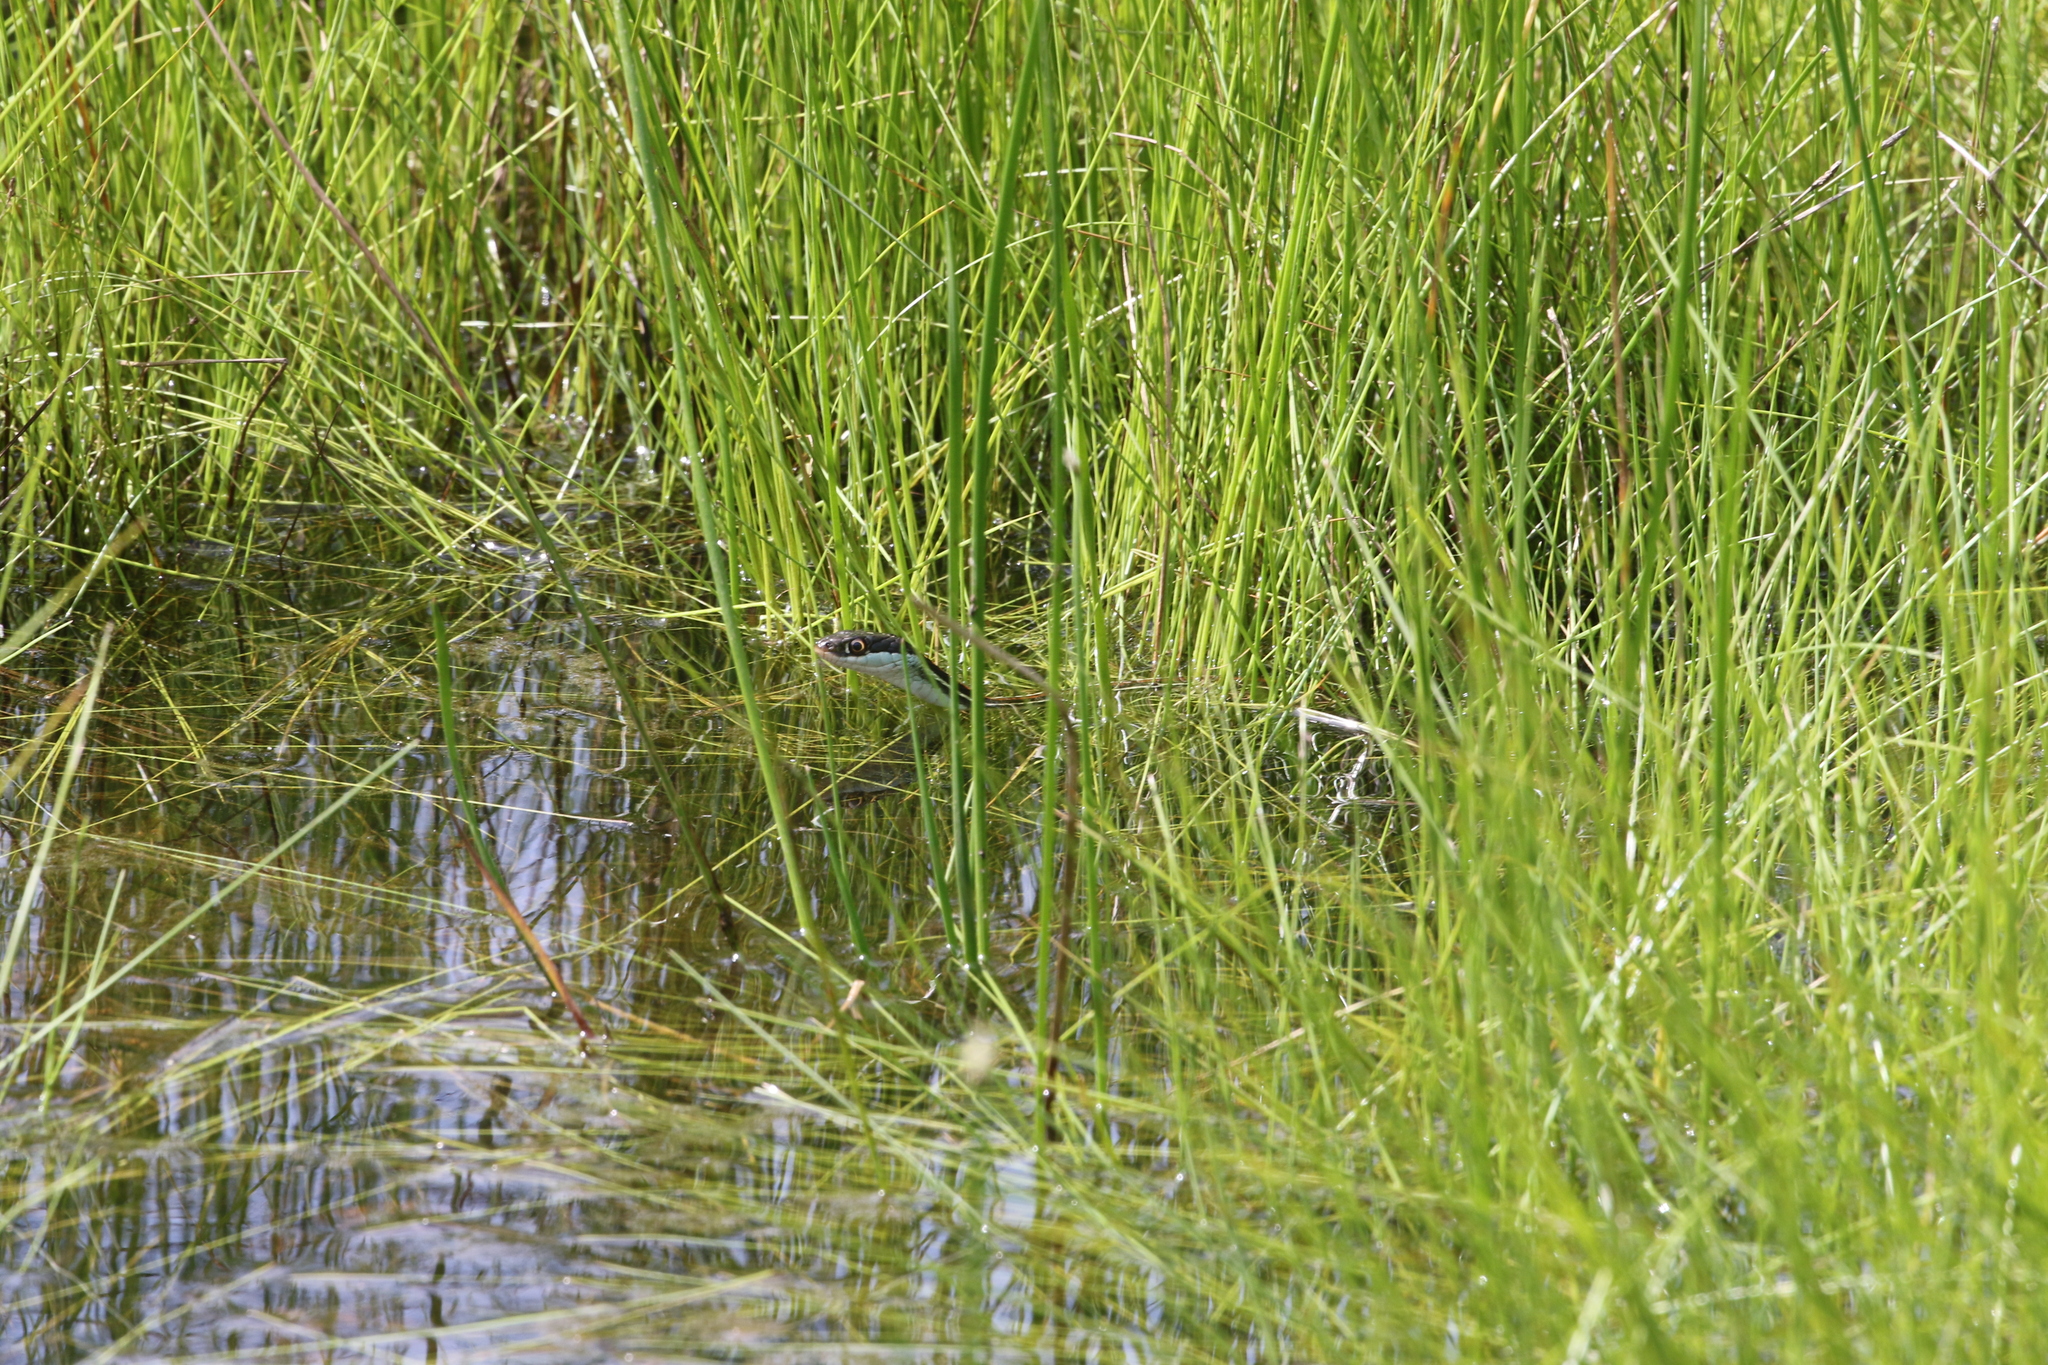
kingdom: Animalia
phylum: Chordata
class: Squamata
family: Colubridae
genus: Thamnophis
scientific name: Thamnophis proximus
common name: Western ribbon snake
